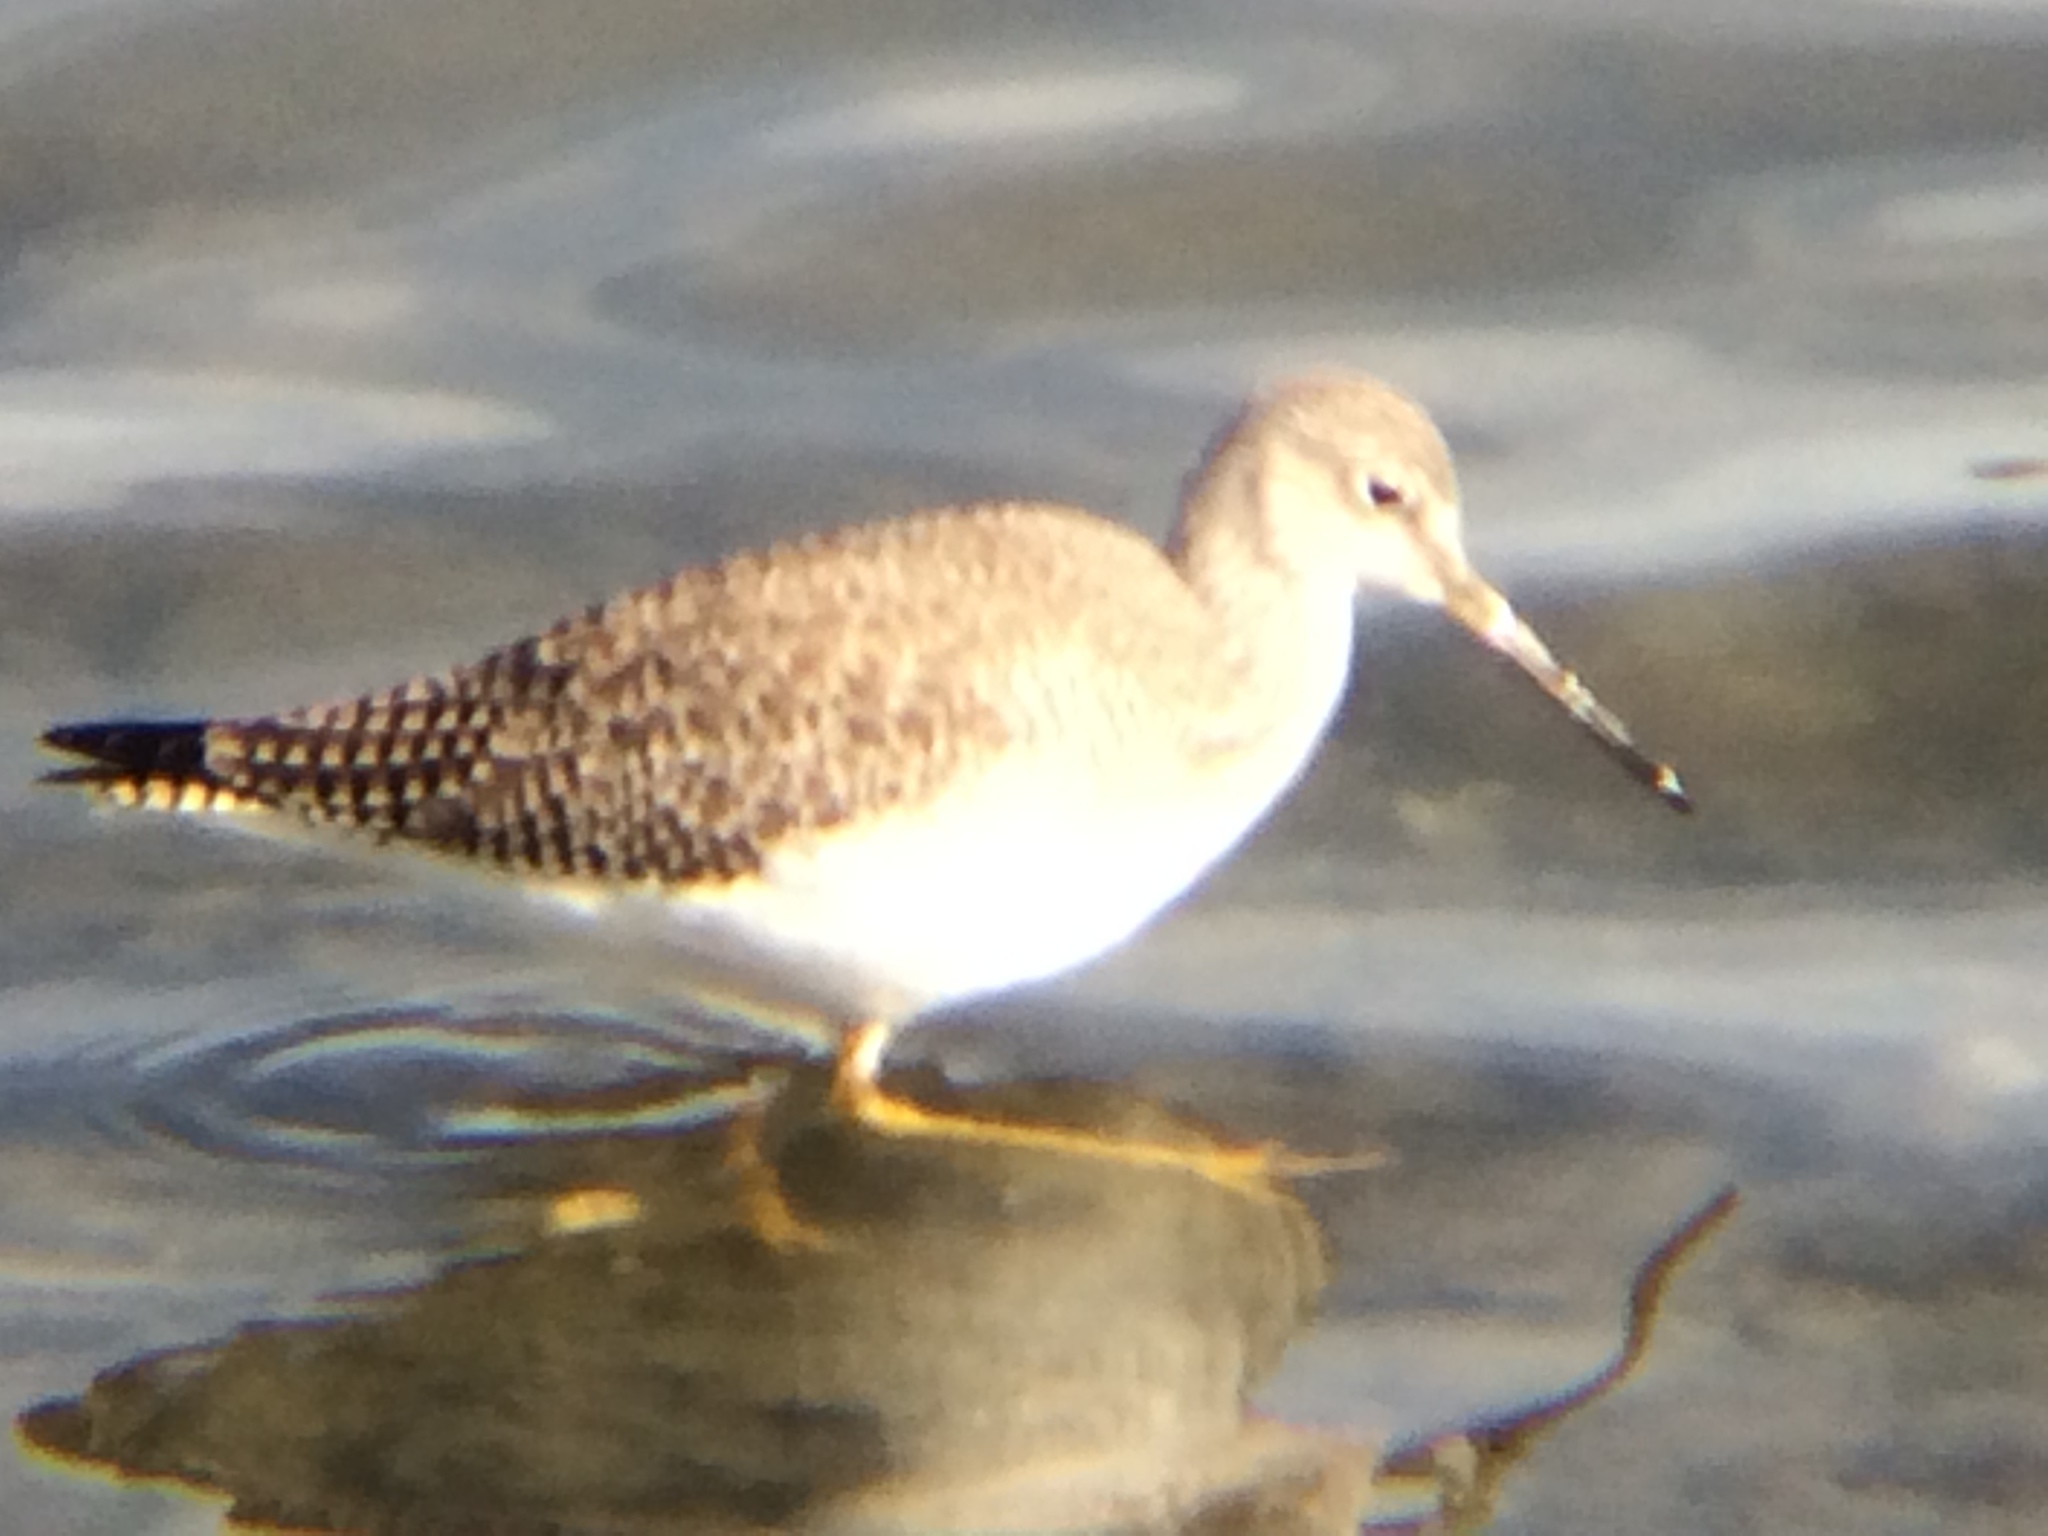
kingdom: Animalia
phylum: Chordata
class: Aves
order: Charadriiformes
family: Scolopacidae
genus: Tringa
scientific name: Tringa melanoleuca
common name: Greater yellowlegs
